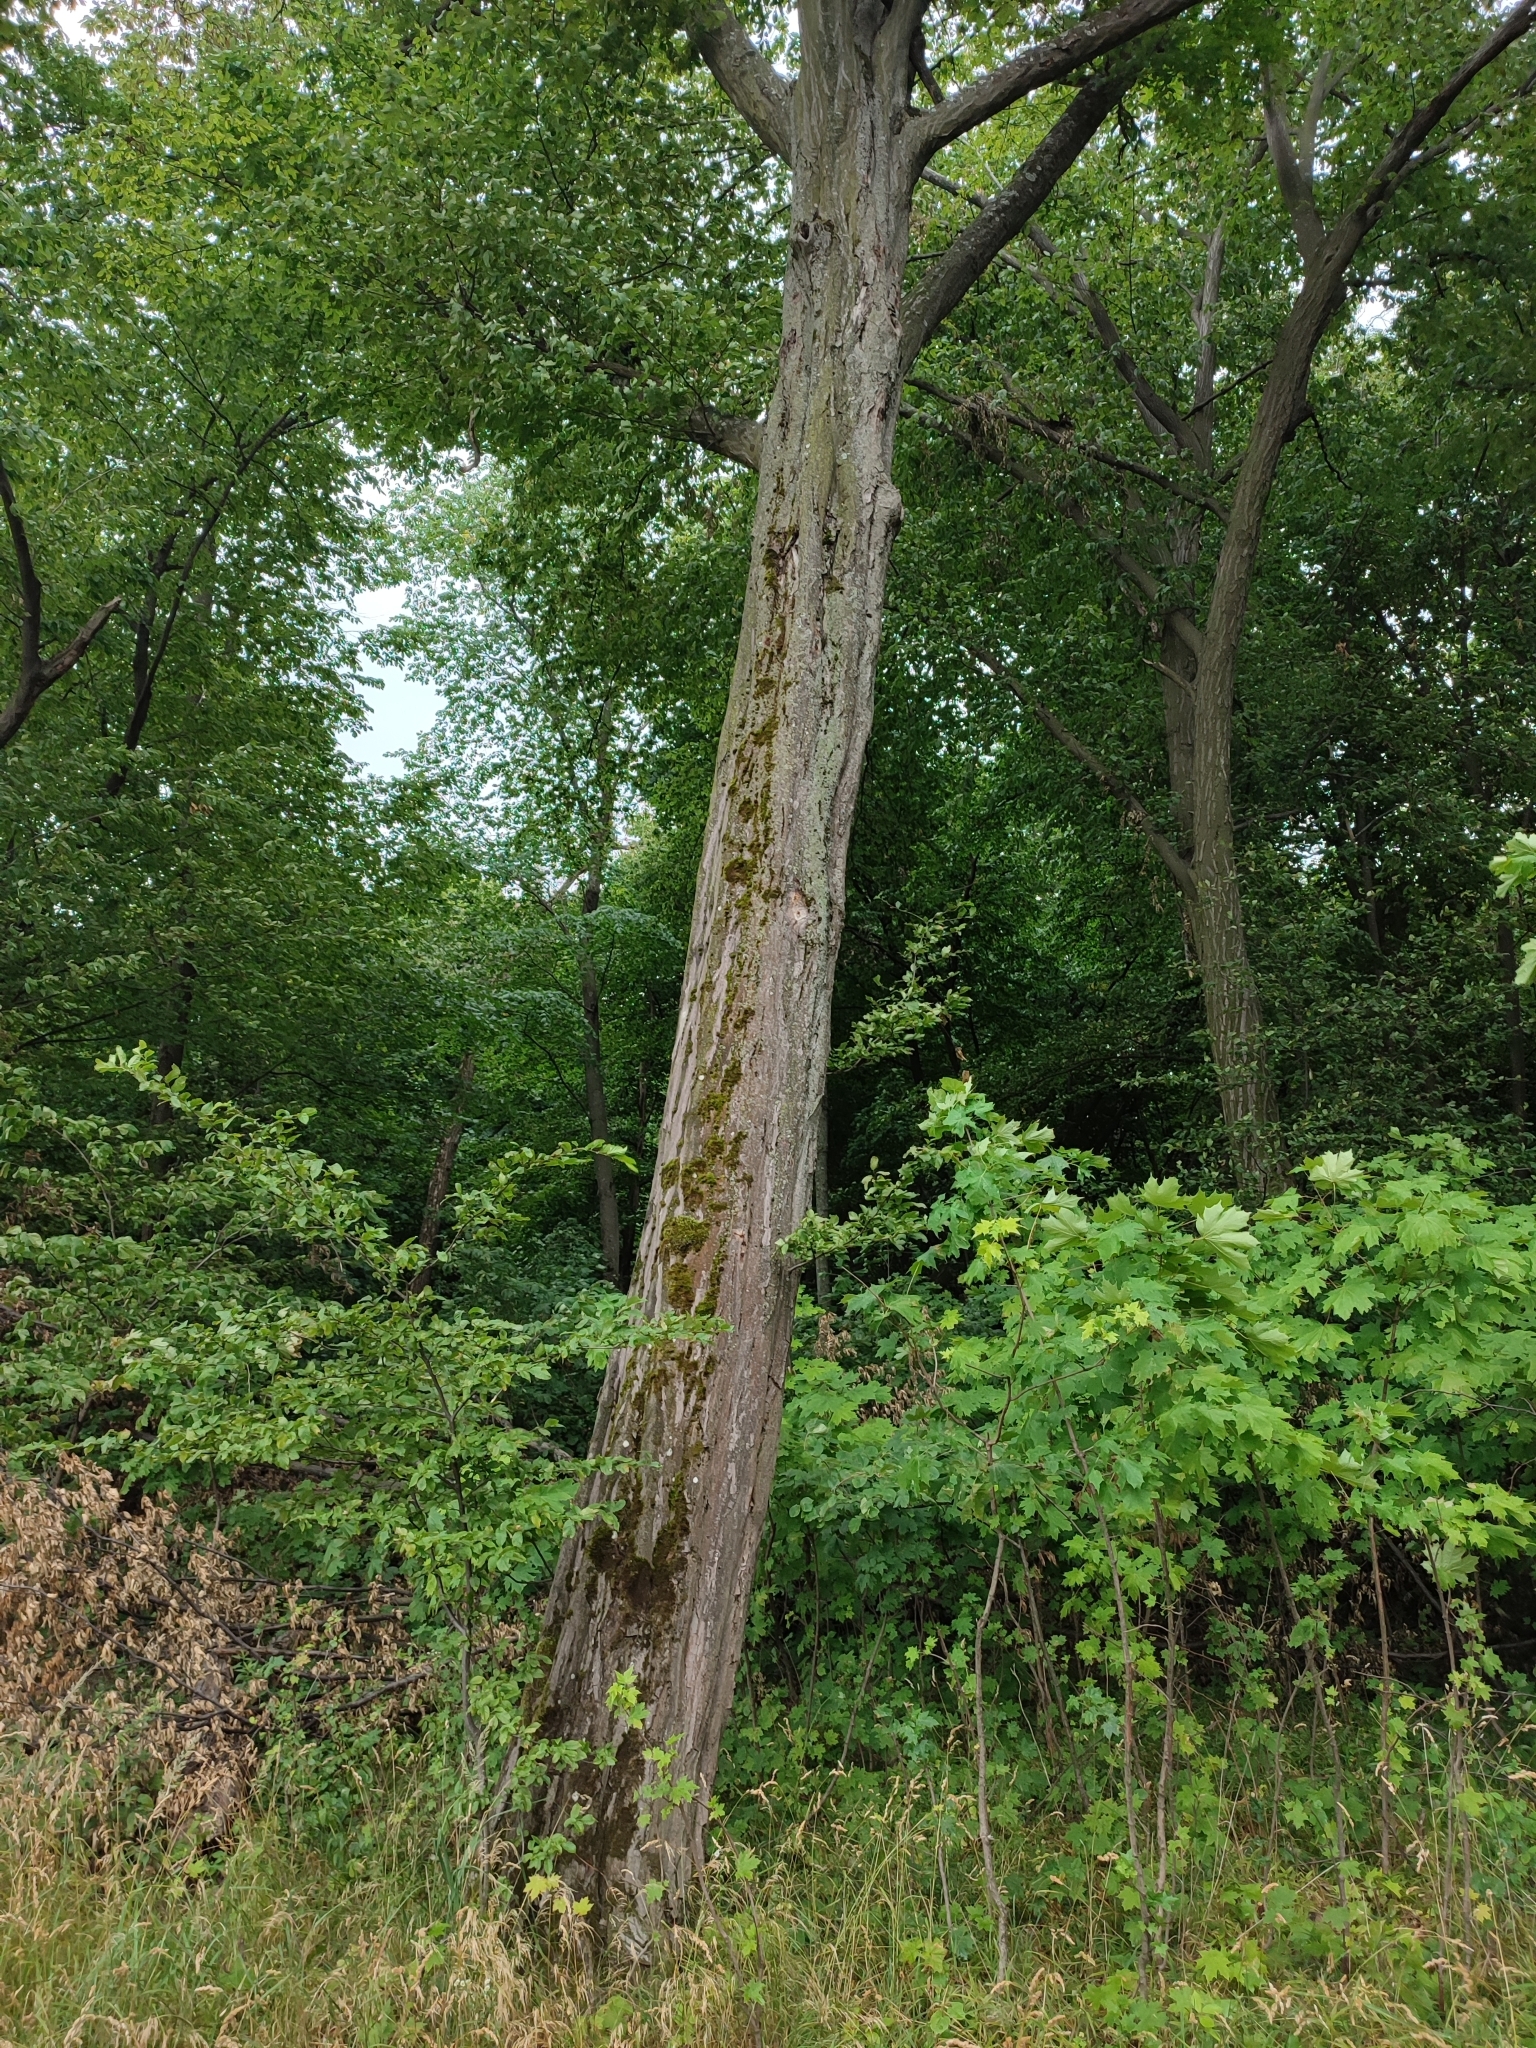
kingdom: Plantae
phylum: Tracheophyta
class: Magnoliopsida
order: Fagales
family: Betulaceae
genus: Carpinus
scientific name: Carpinus betulus
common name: Hornbeam
